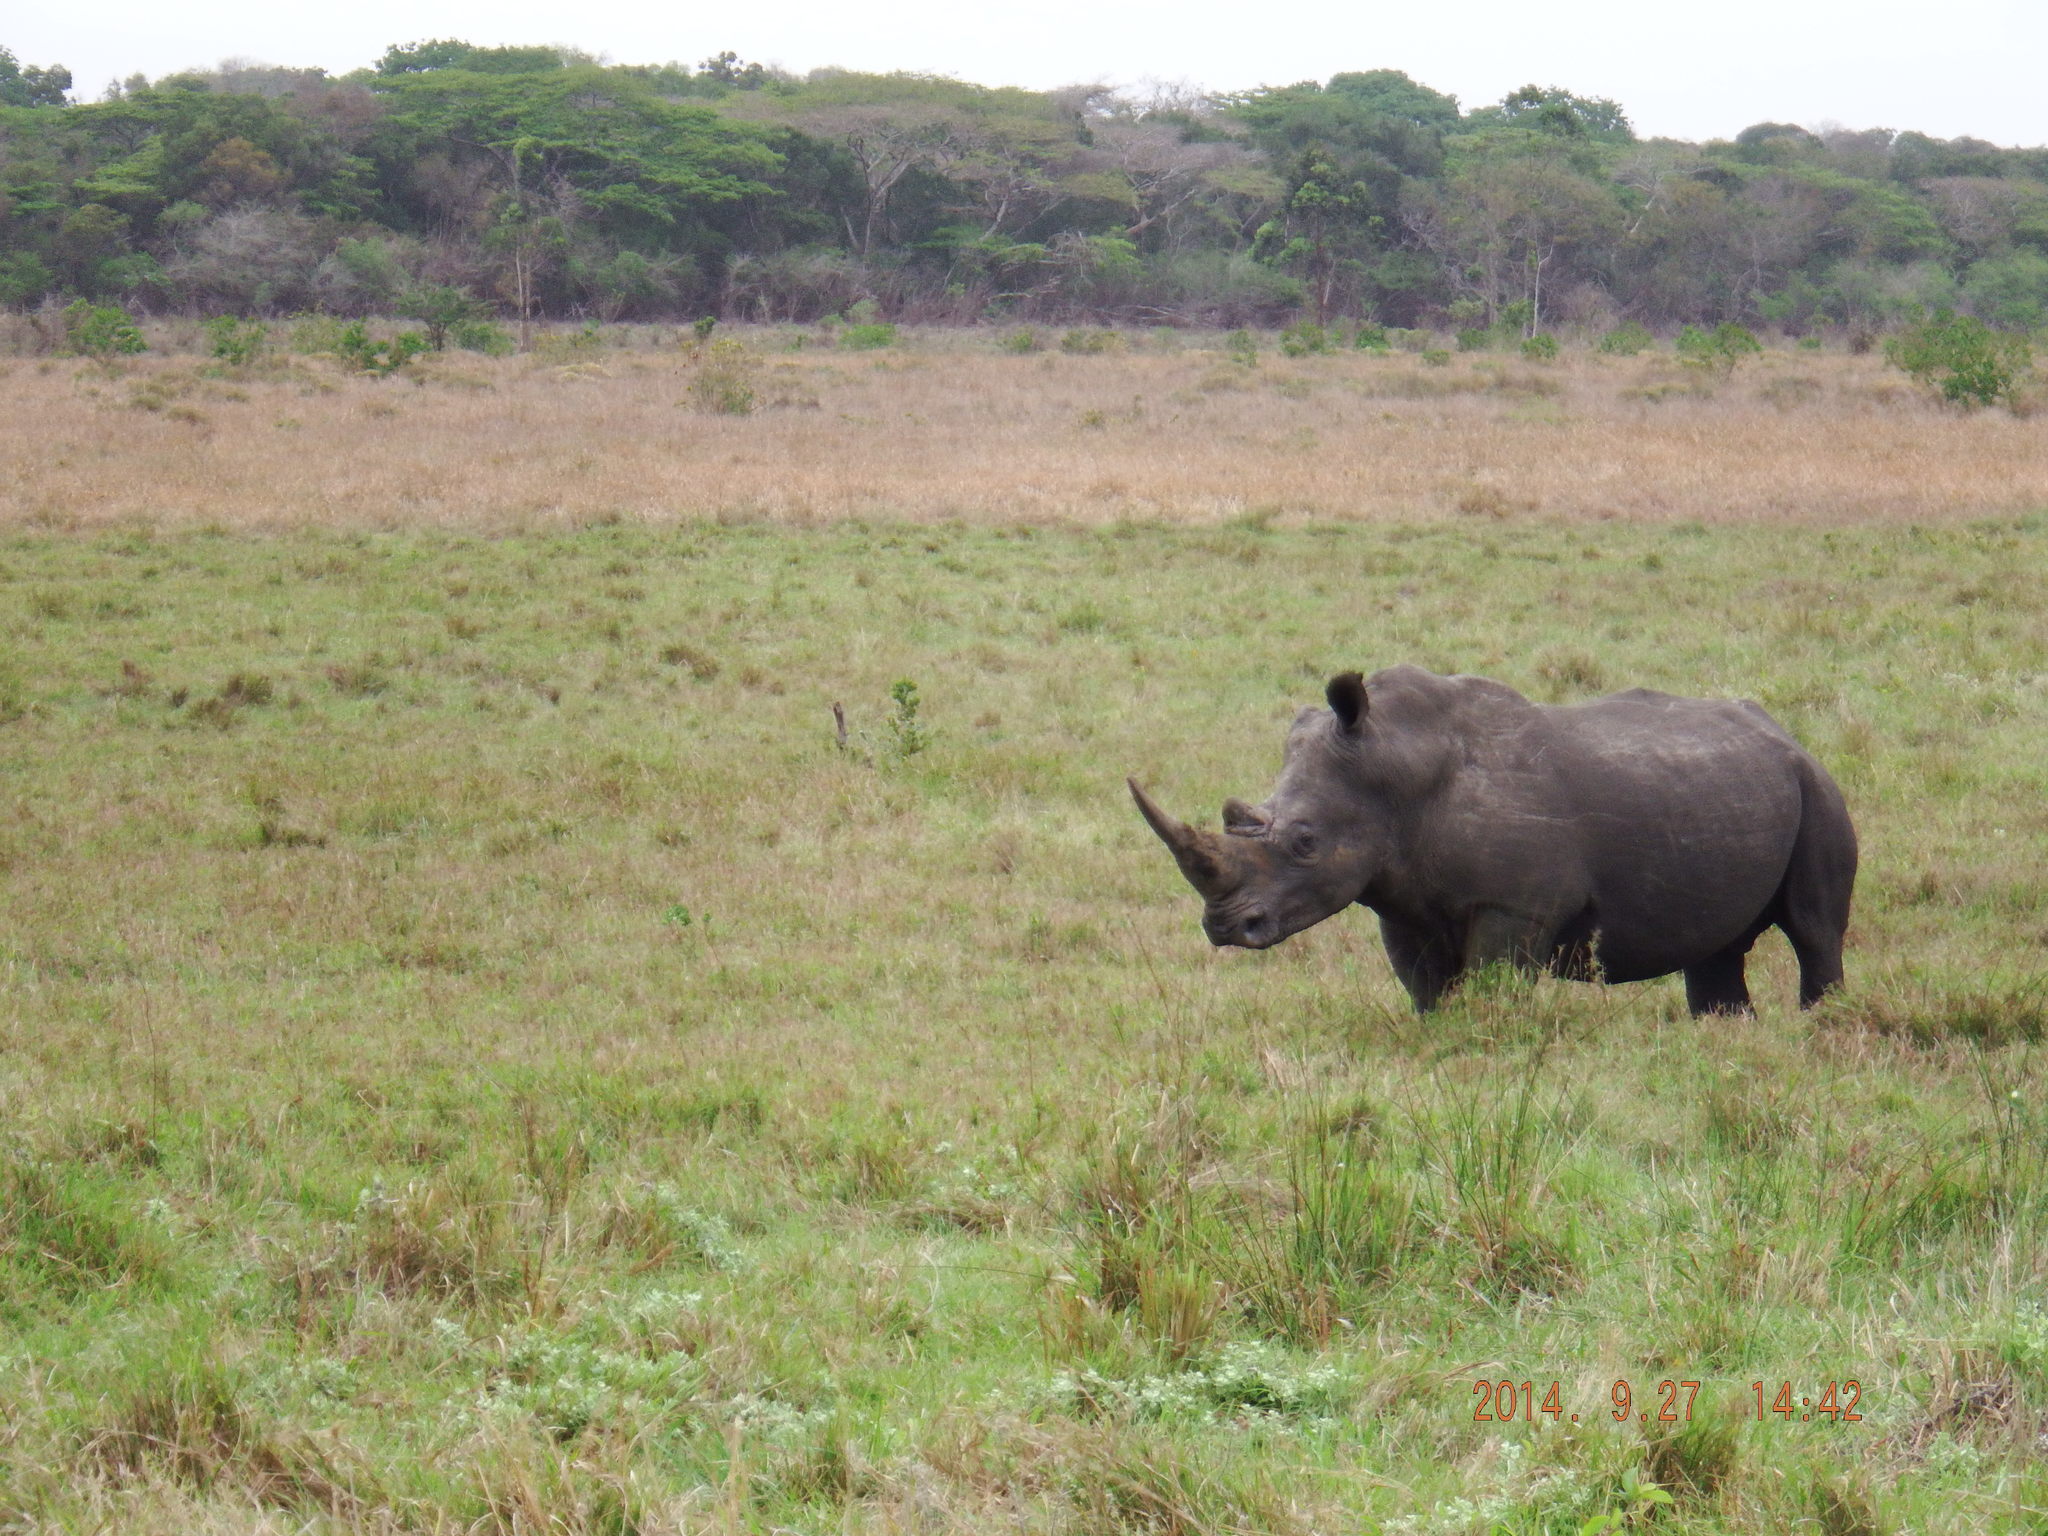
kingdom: Animalia
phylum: Chordata
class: Mammalia
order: Perissodactyla
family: Rhinocerotidae
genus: Ceratotherium
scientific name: Ceratotherium simum
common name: White rhinoceros
